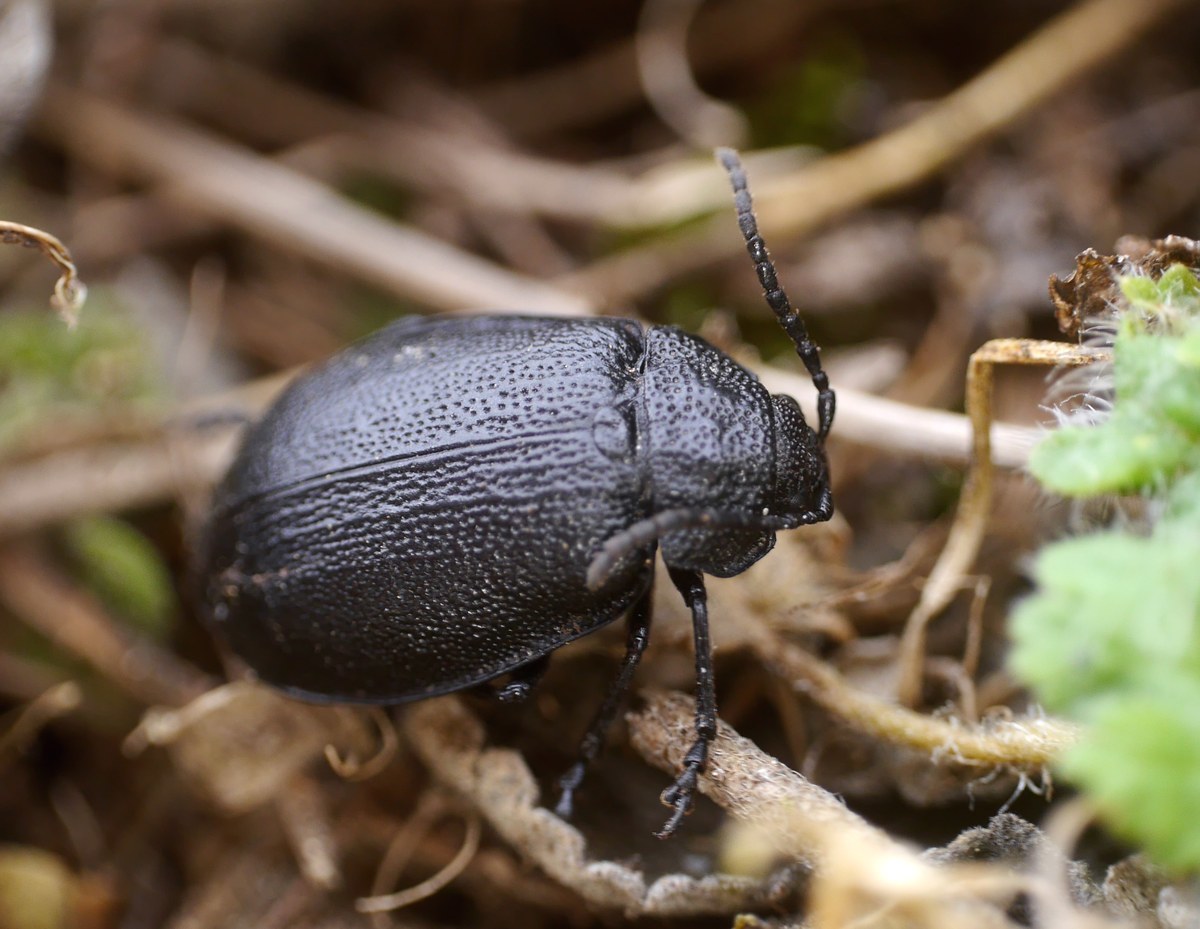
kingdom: Animalia
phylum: Arthropoda
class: Insecta
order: Coleoptera
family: Chrysomelidae
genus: Galeruca
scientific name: Galeruca tanaceti
